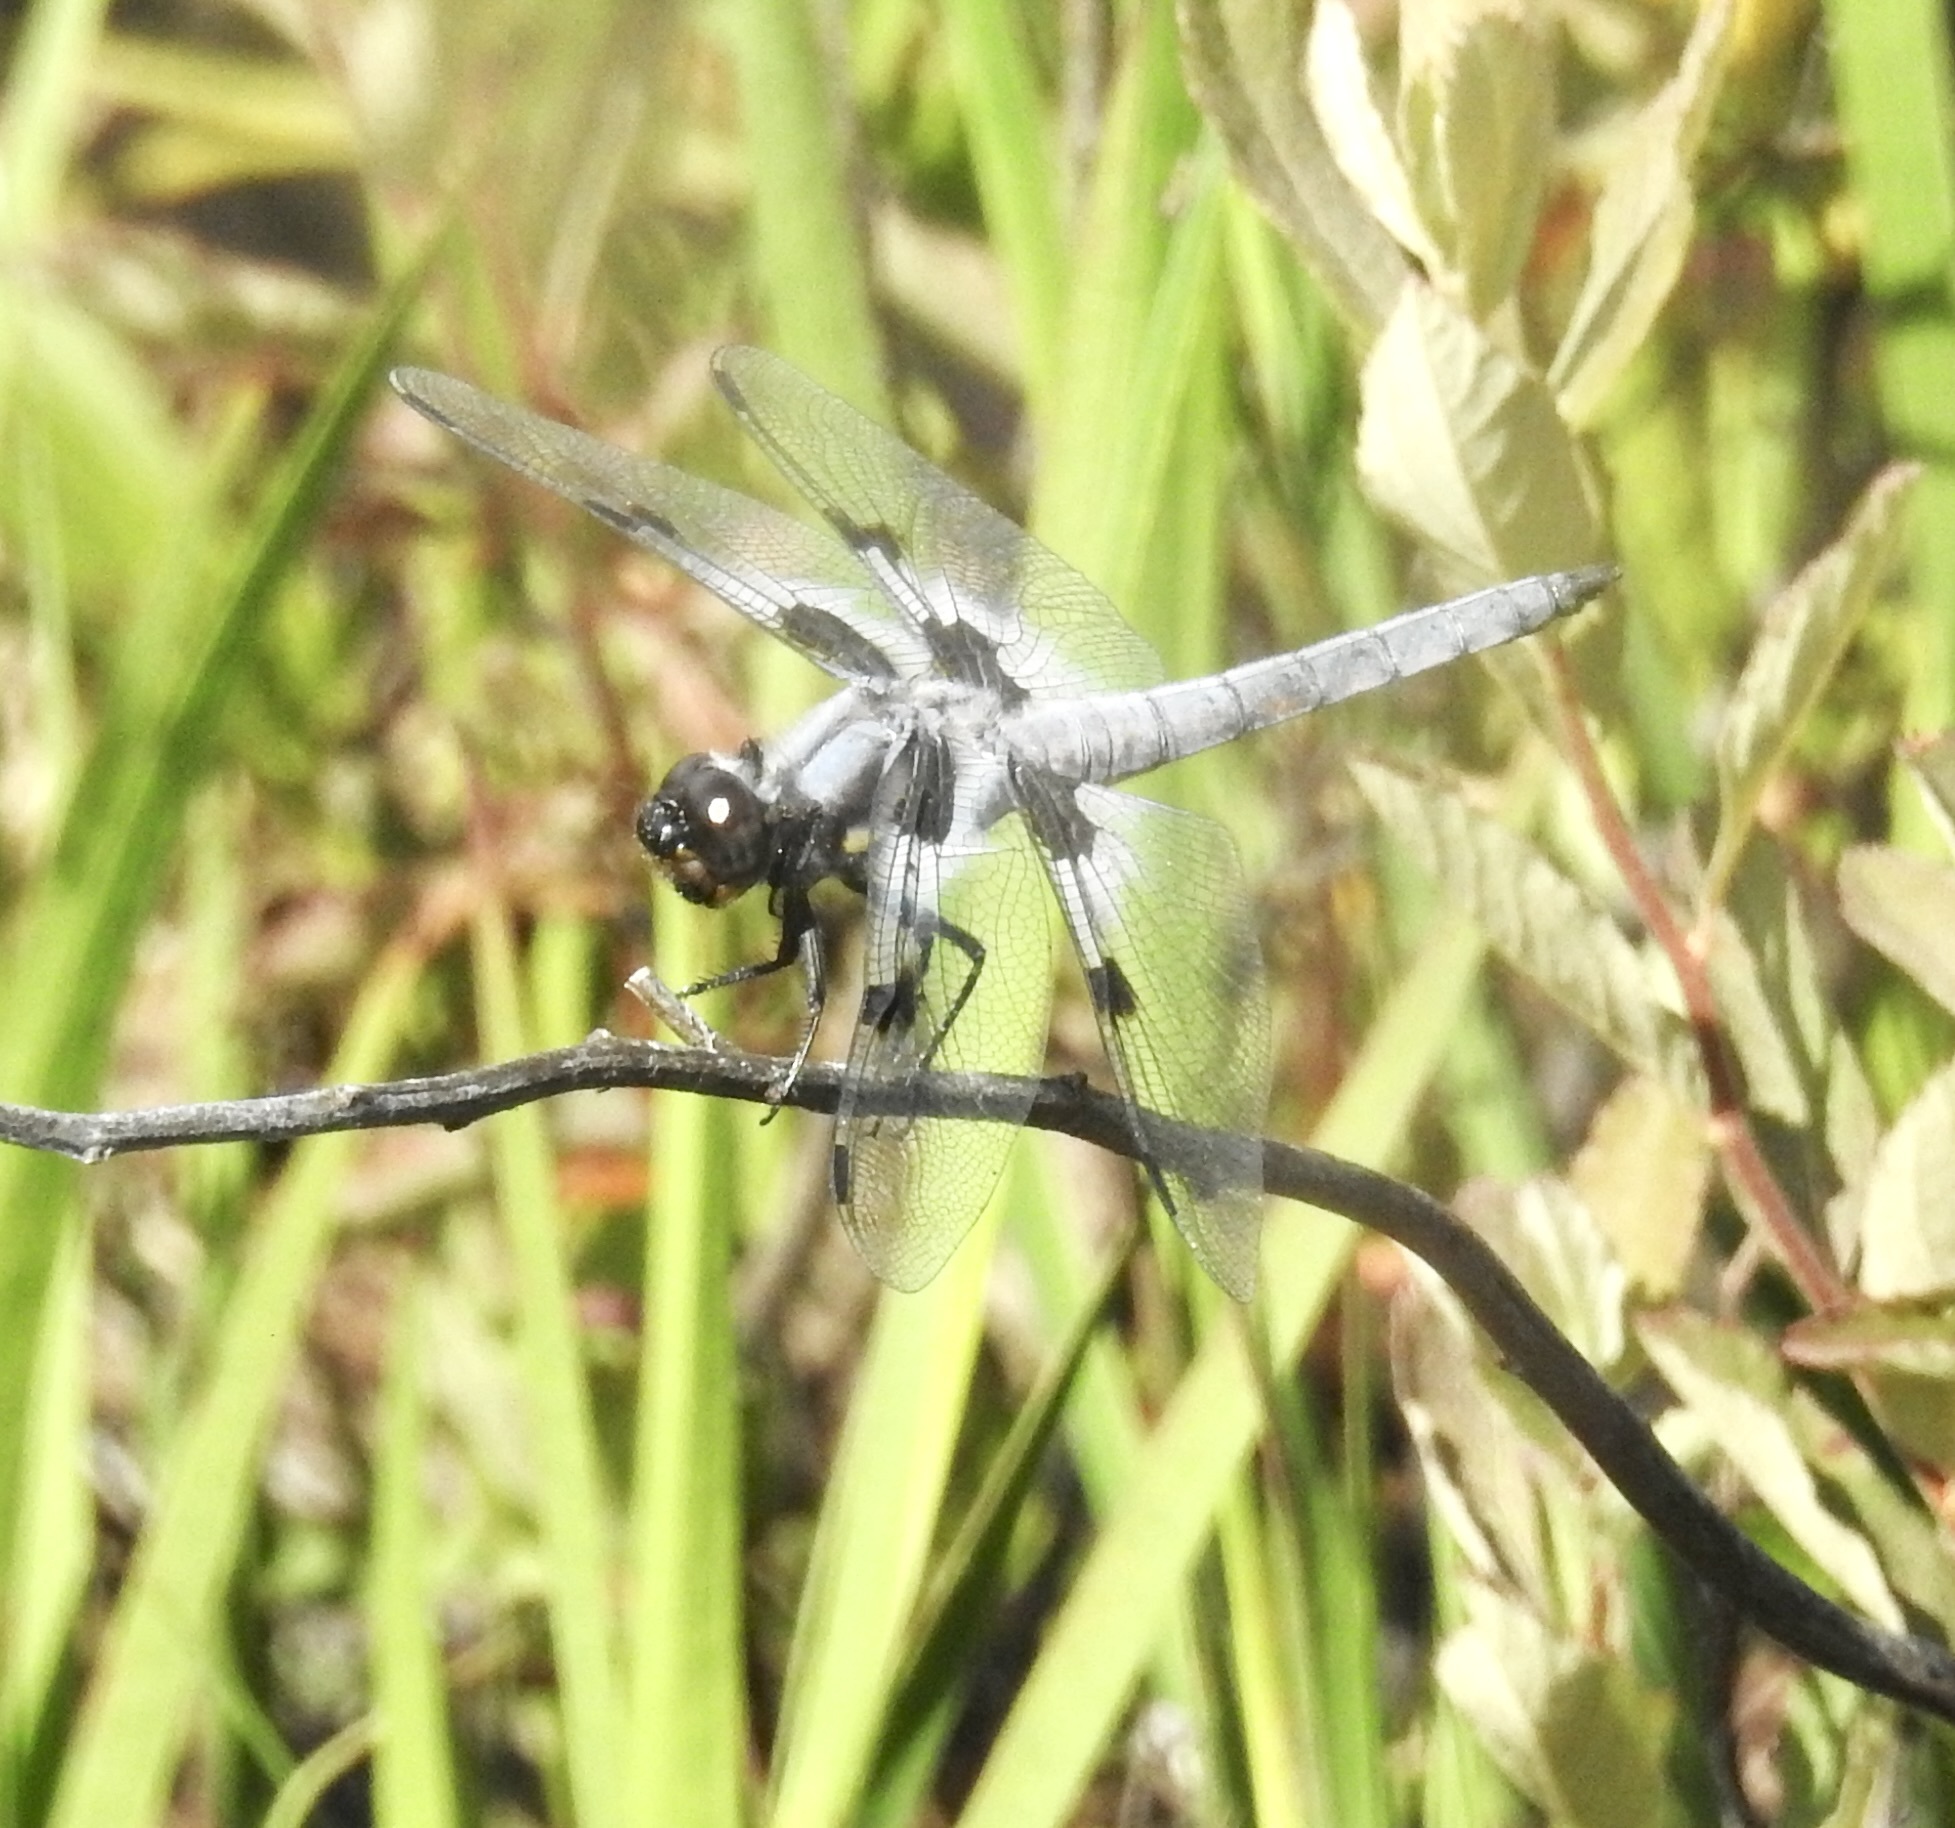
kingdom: Animalia
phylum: Arthropoda
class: Insecta
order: Odonata
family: Libellulidae
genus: Libellula
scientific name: Libellula nodisticta
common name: Hoary skimmer
